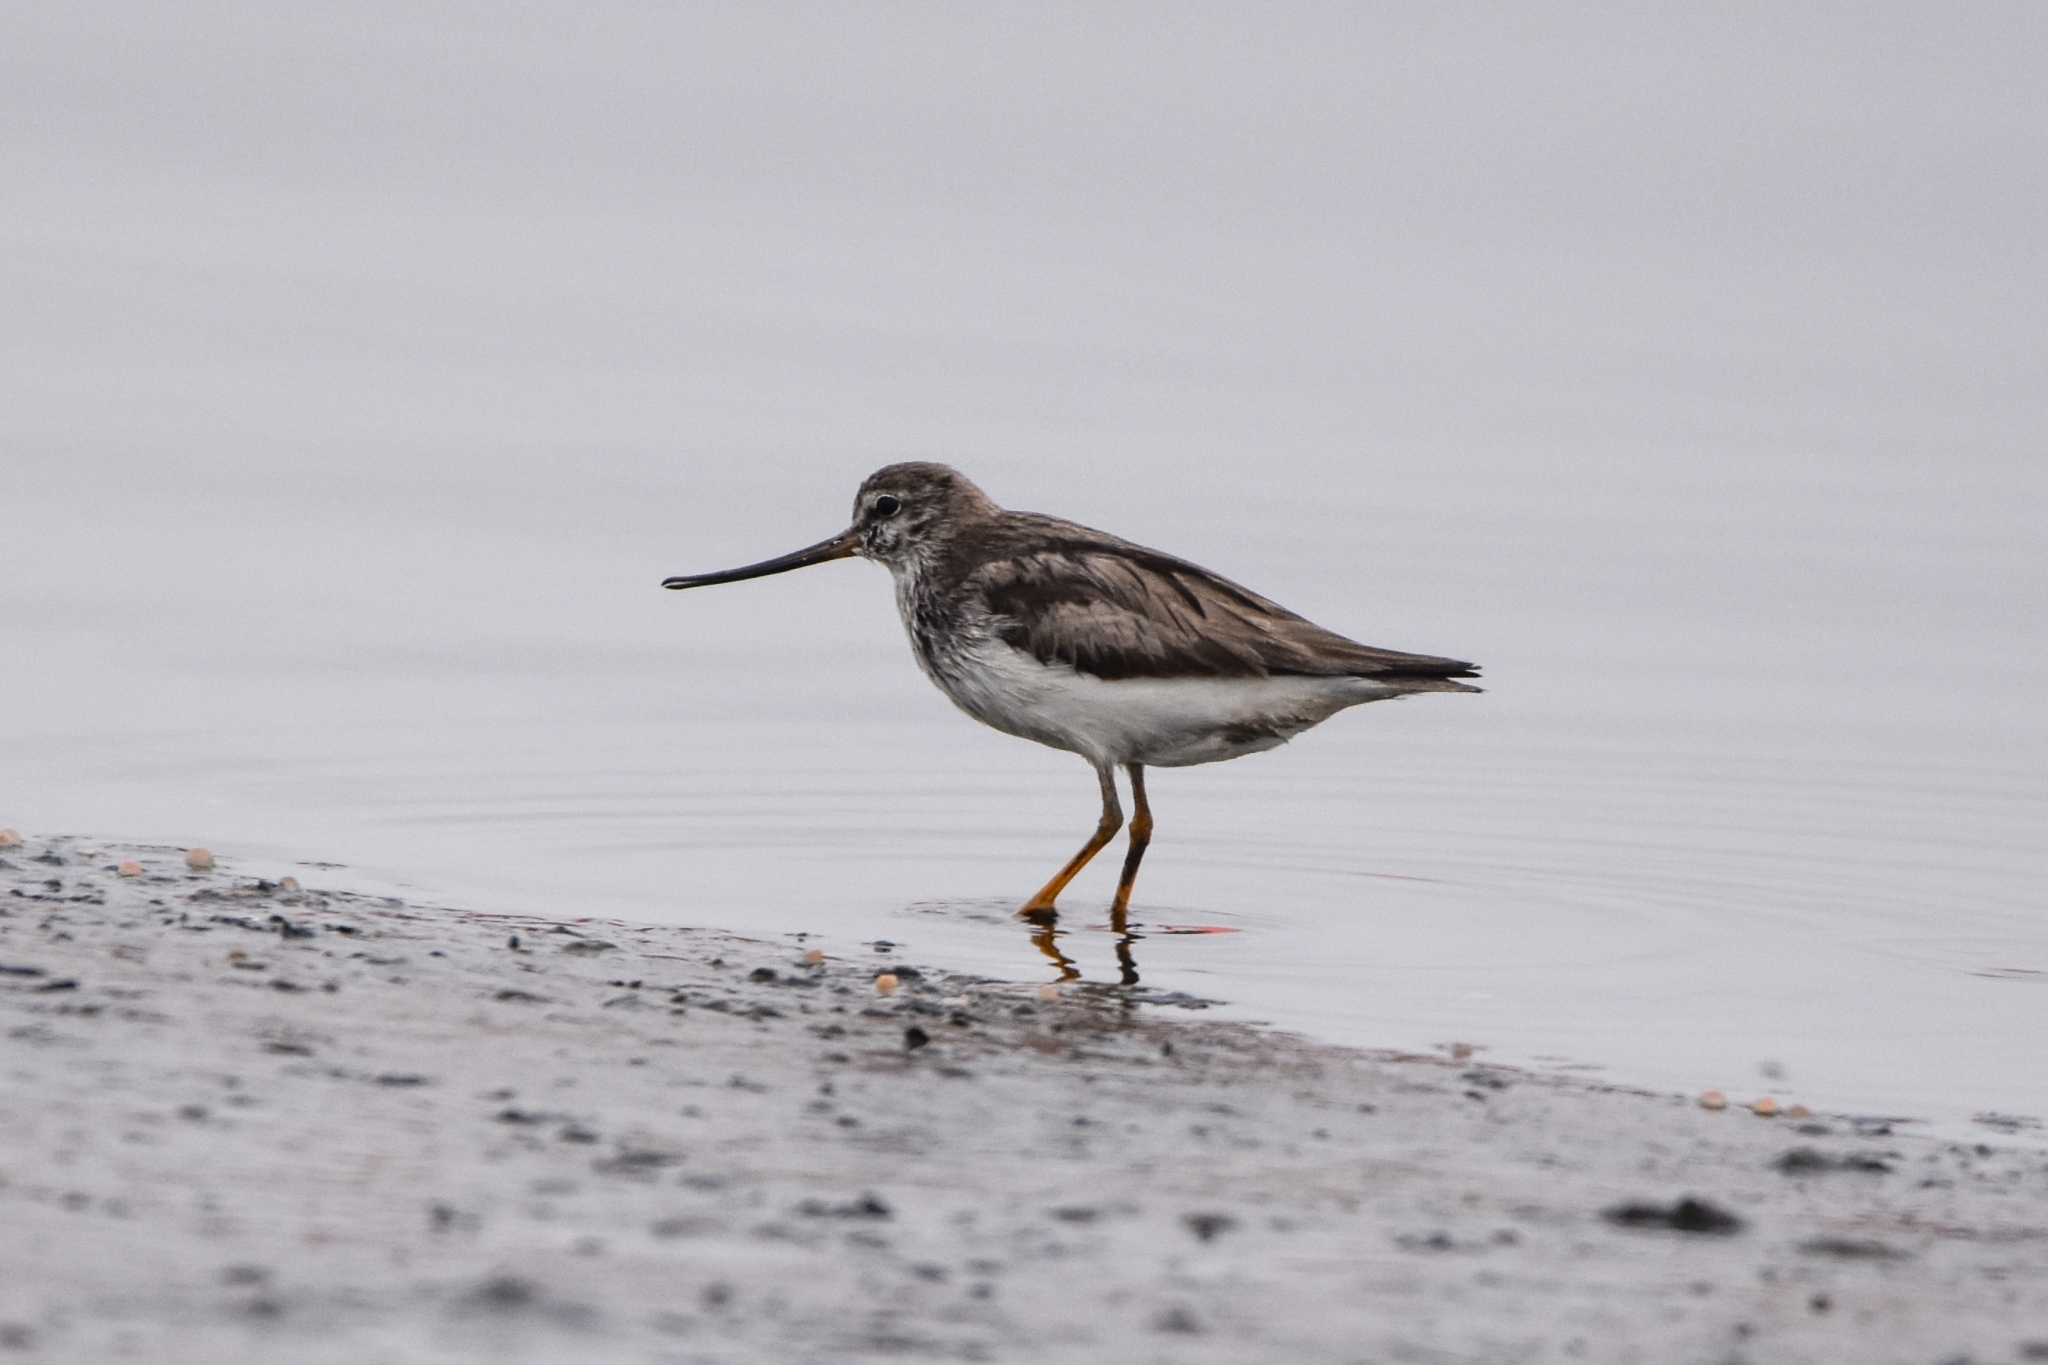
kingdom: Animalia
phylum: Chordata
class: Aves
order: Charadriiformes
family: Scolopacidae
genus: Xenus
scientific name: Xenus cinereus
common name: Terek sandpiper
